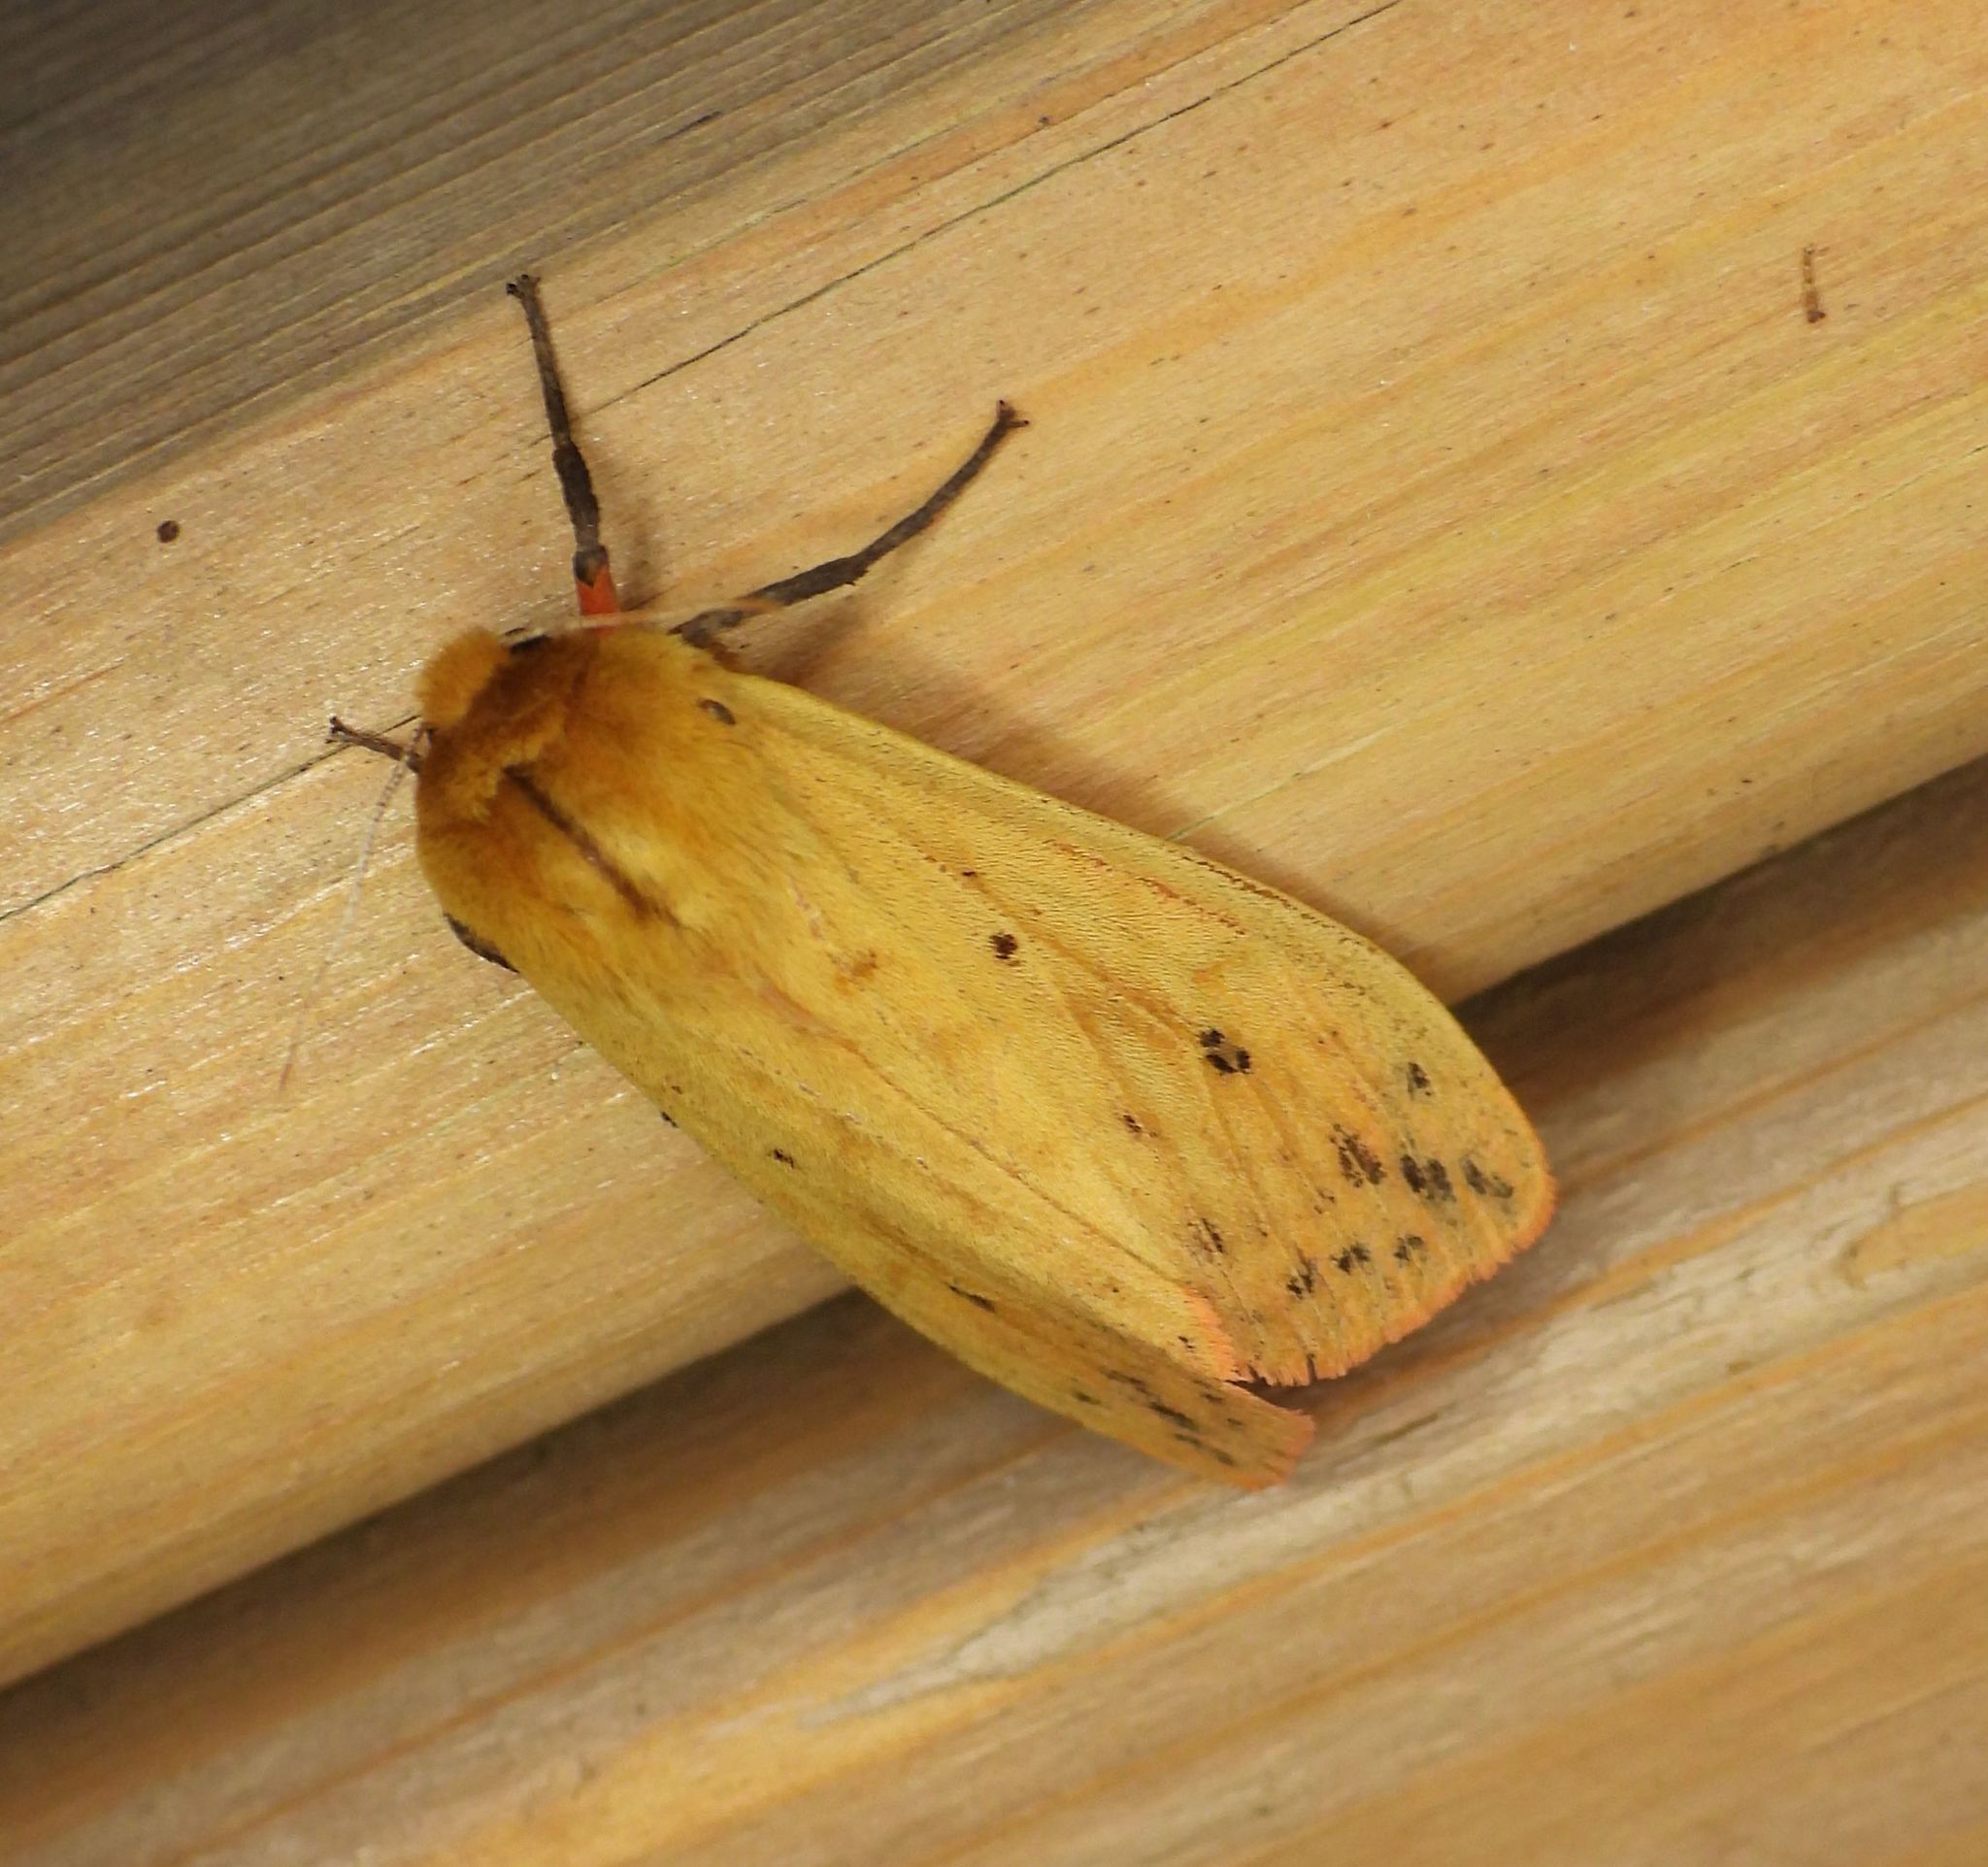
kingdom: Animalia
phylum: Arthropoda
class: Insecta
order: Lepidoptera
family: Erebidae
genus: Pyrrharctia
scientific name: Pyrrharctia isabella
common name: Isabella tiger moth
